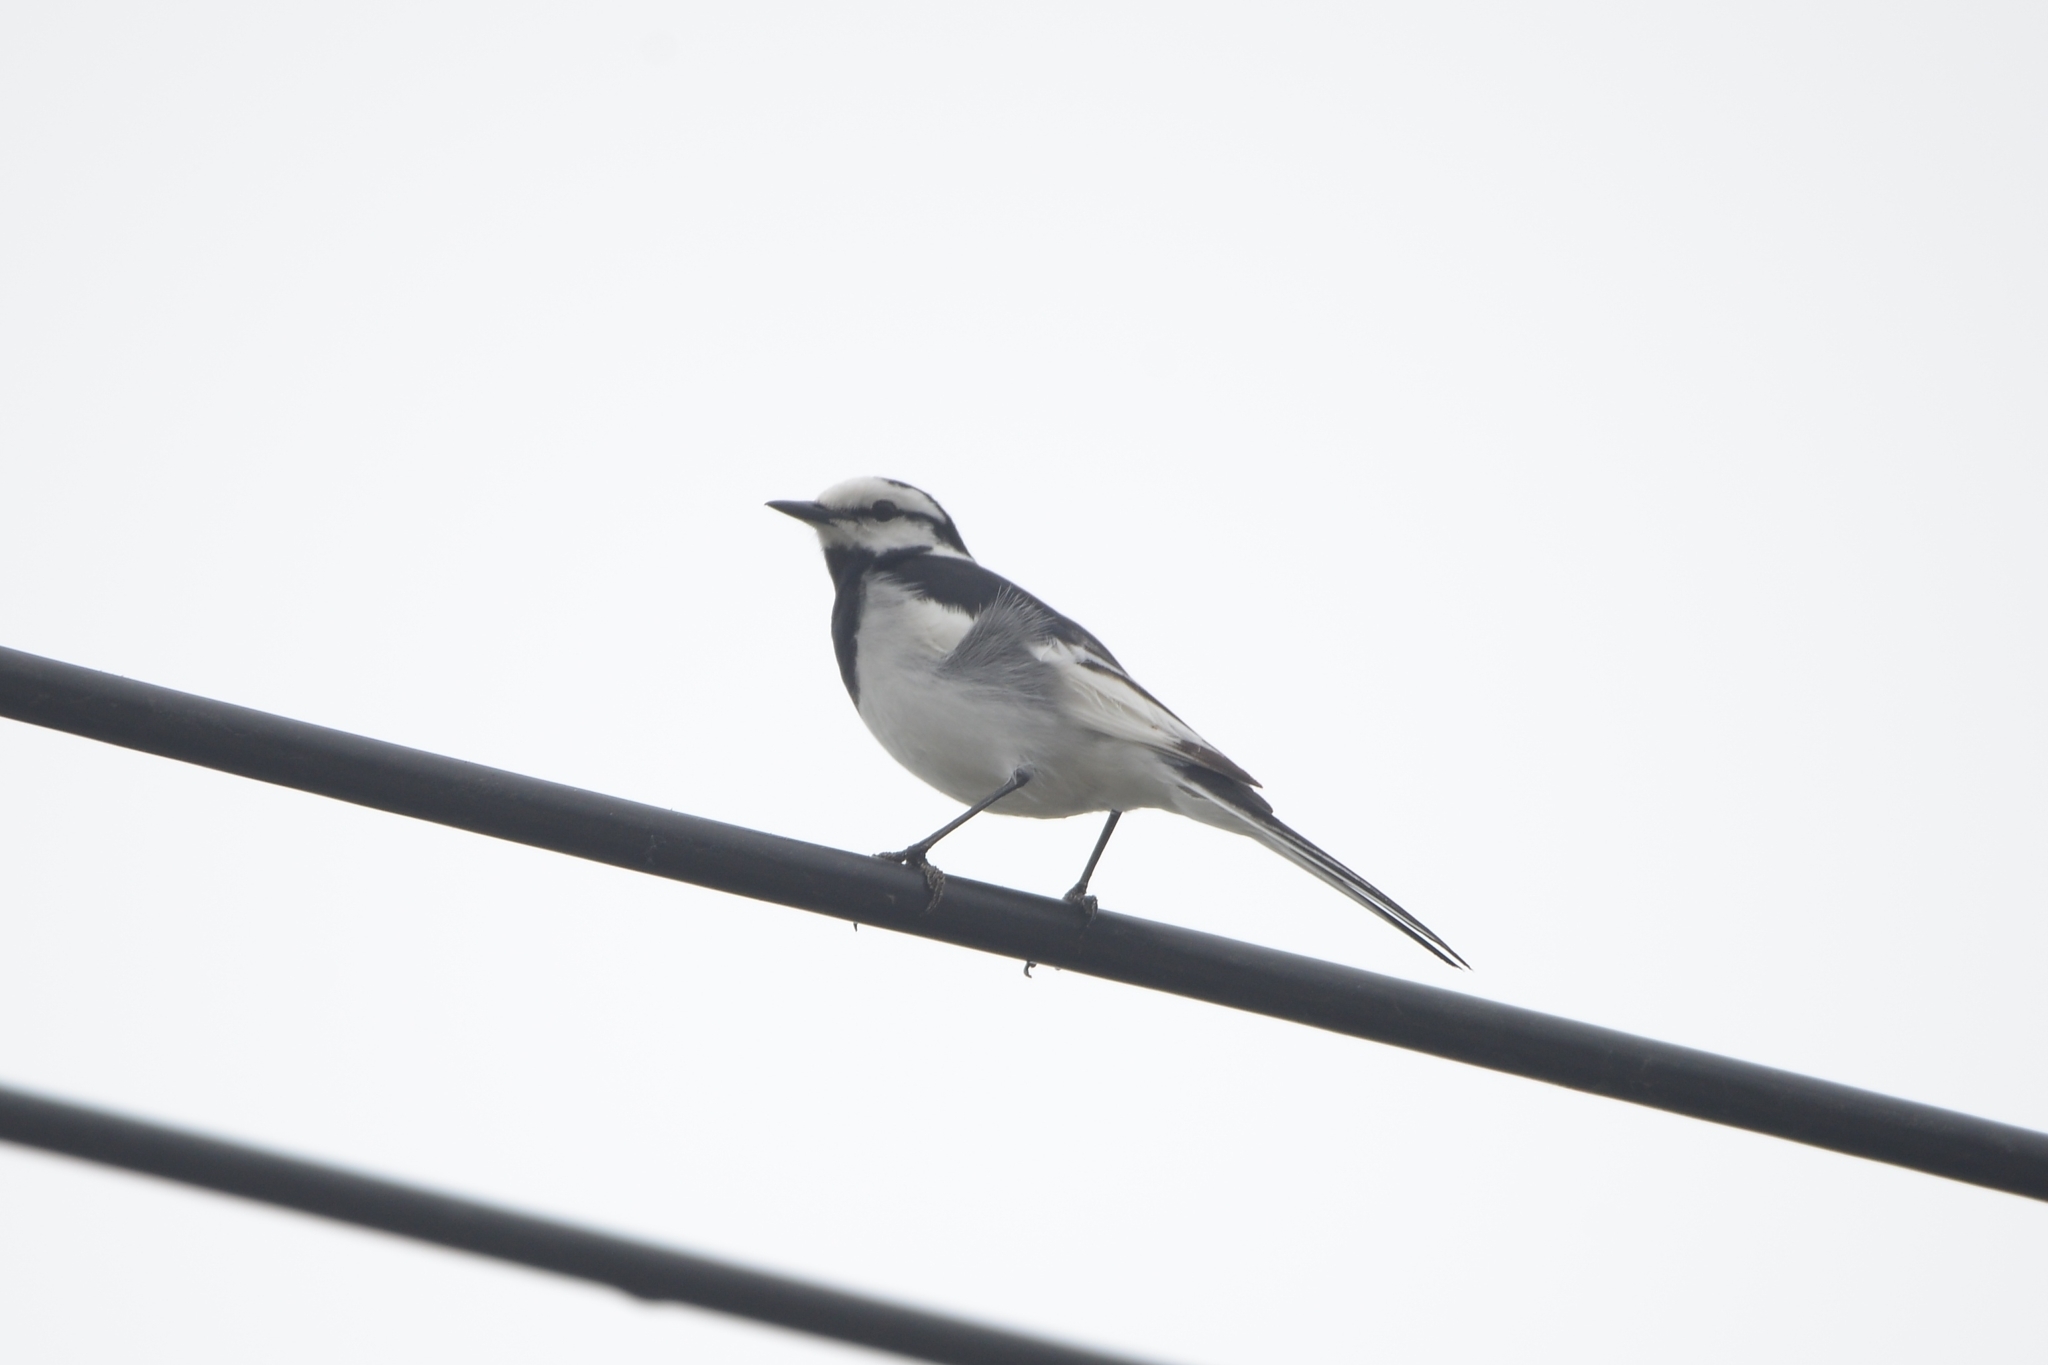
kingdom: Animalia
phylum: Chordata
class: Aves
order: Passeriformes
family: Motacillidae
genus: Motacilla
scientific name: Motacilla alba
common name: White wagtail
